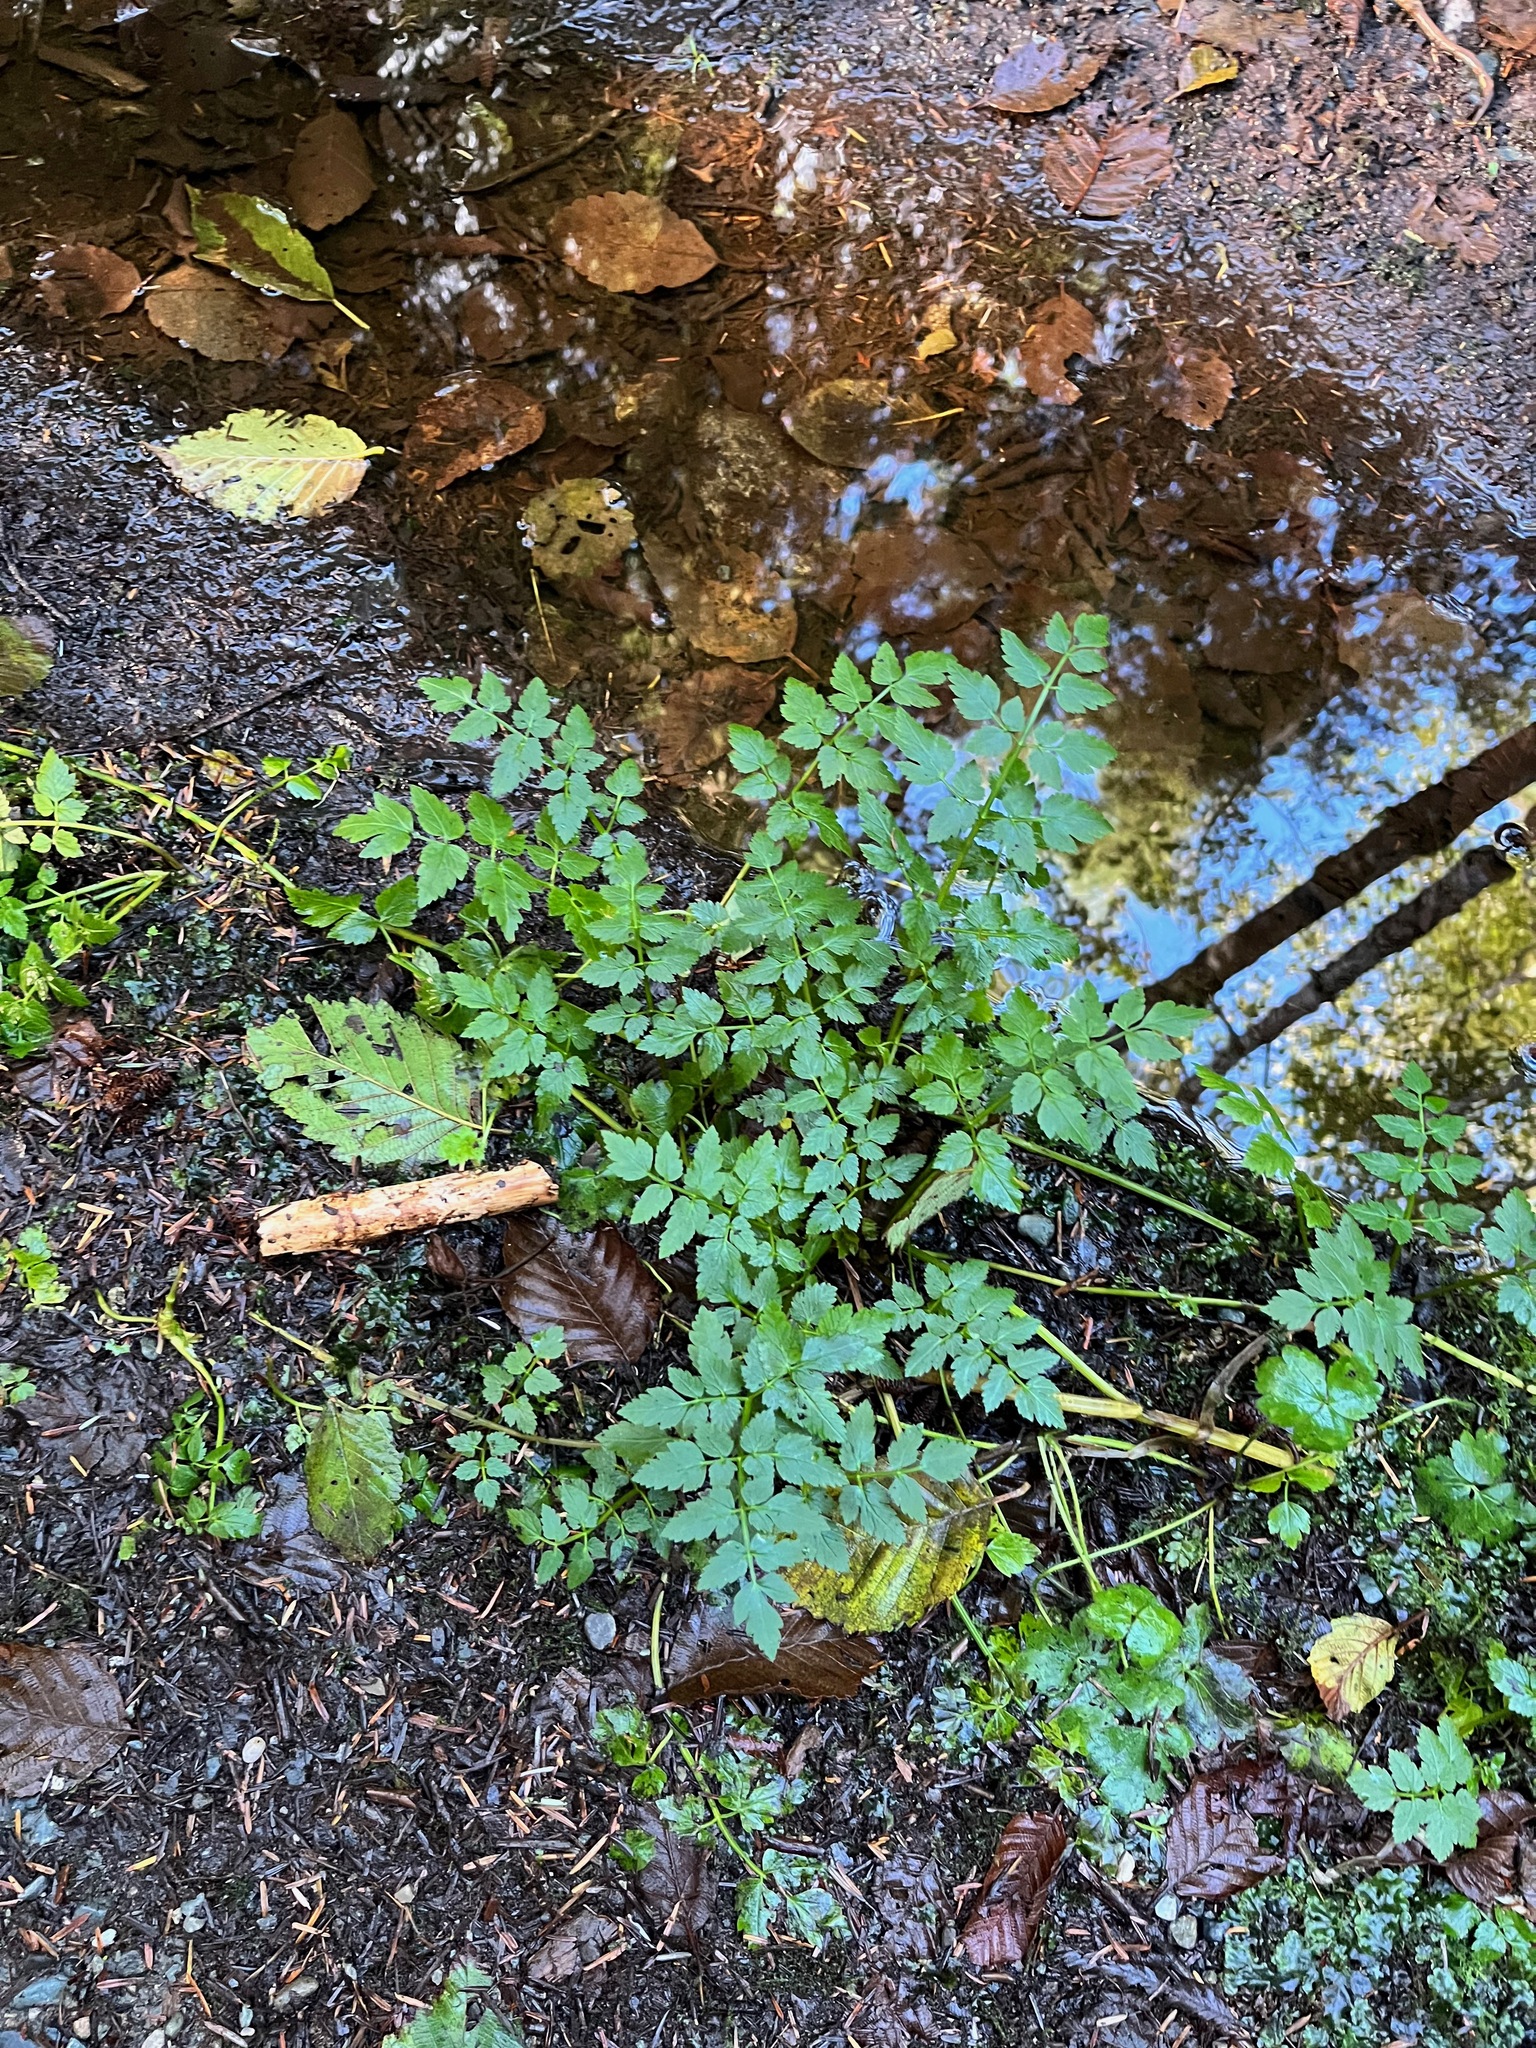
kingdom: Plantae
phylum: Tracheophyta
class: Magnoliopsida
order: Apiales
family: Apiaceae
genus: Oenanthe
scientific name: Oenanthe sarmentosa
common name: American water-parsley
